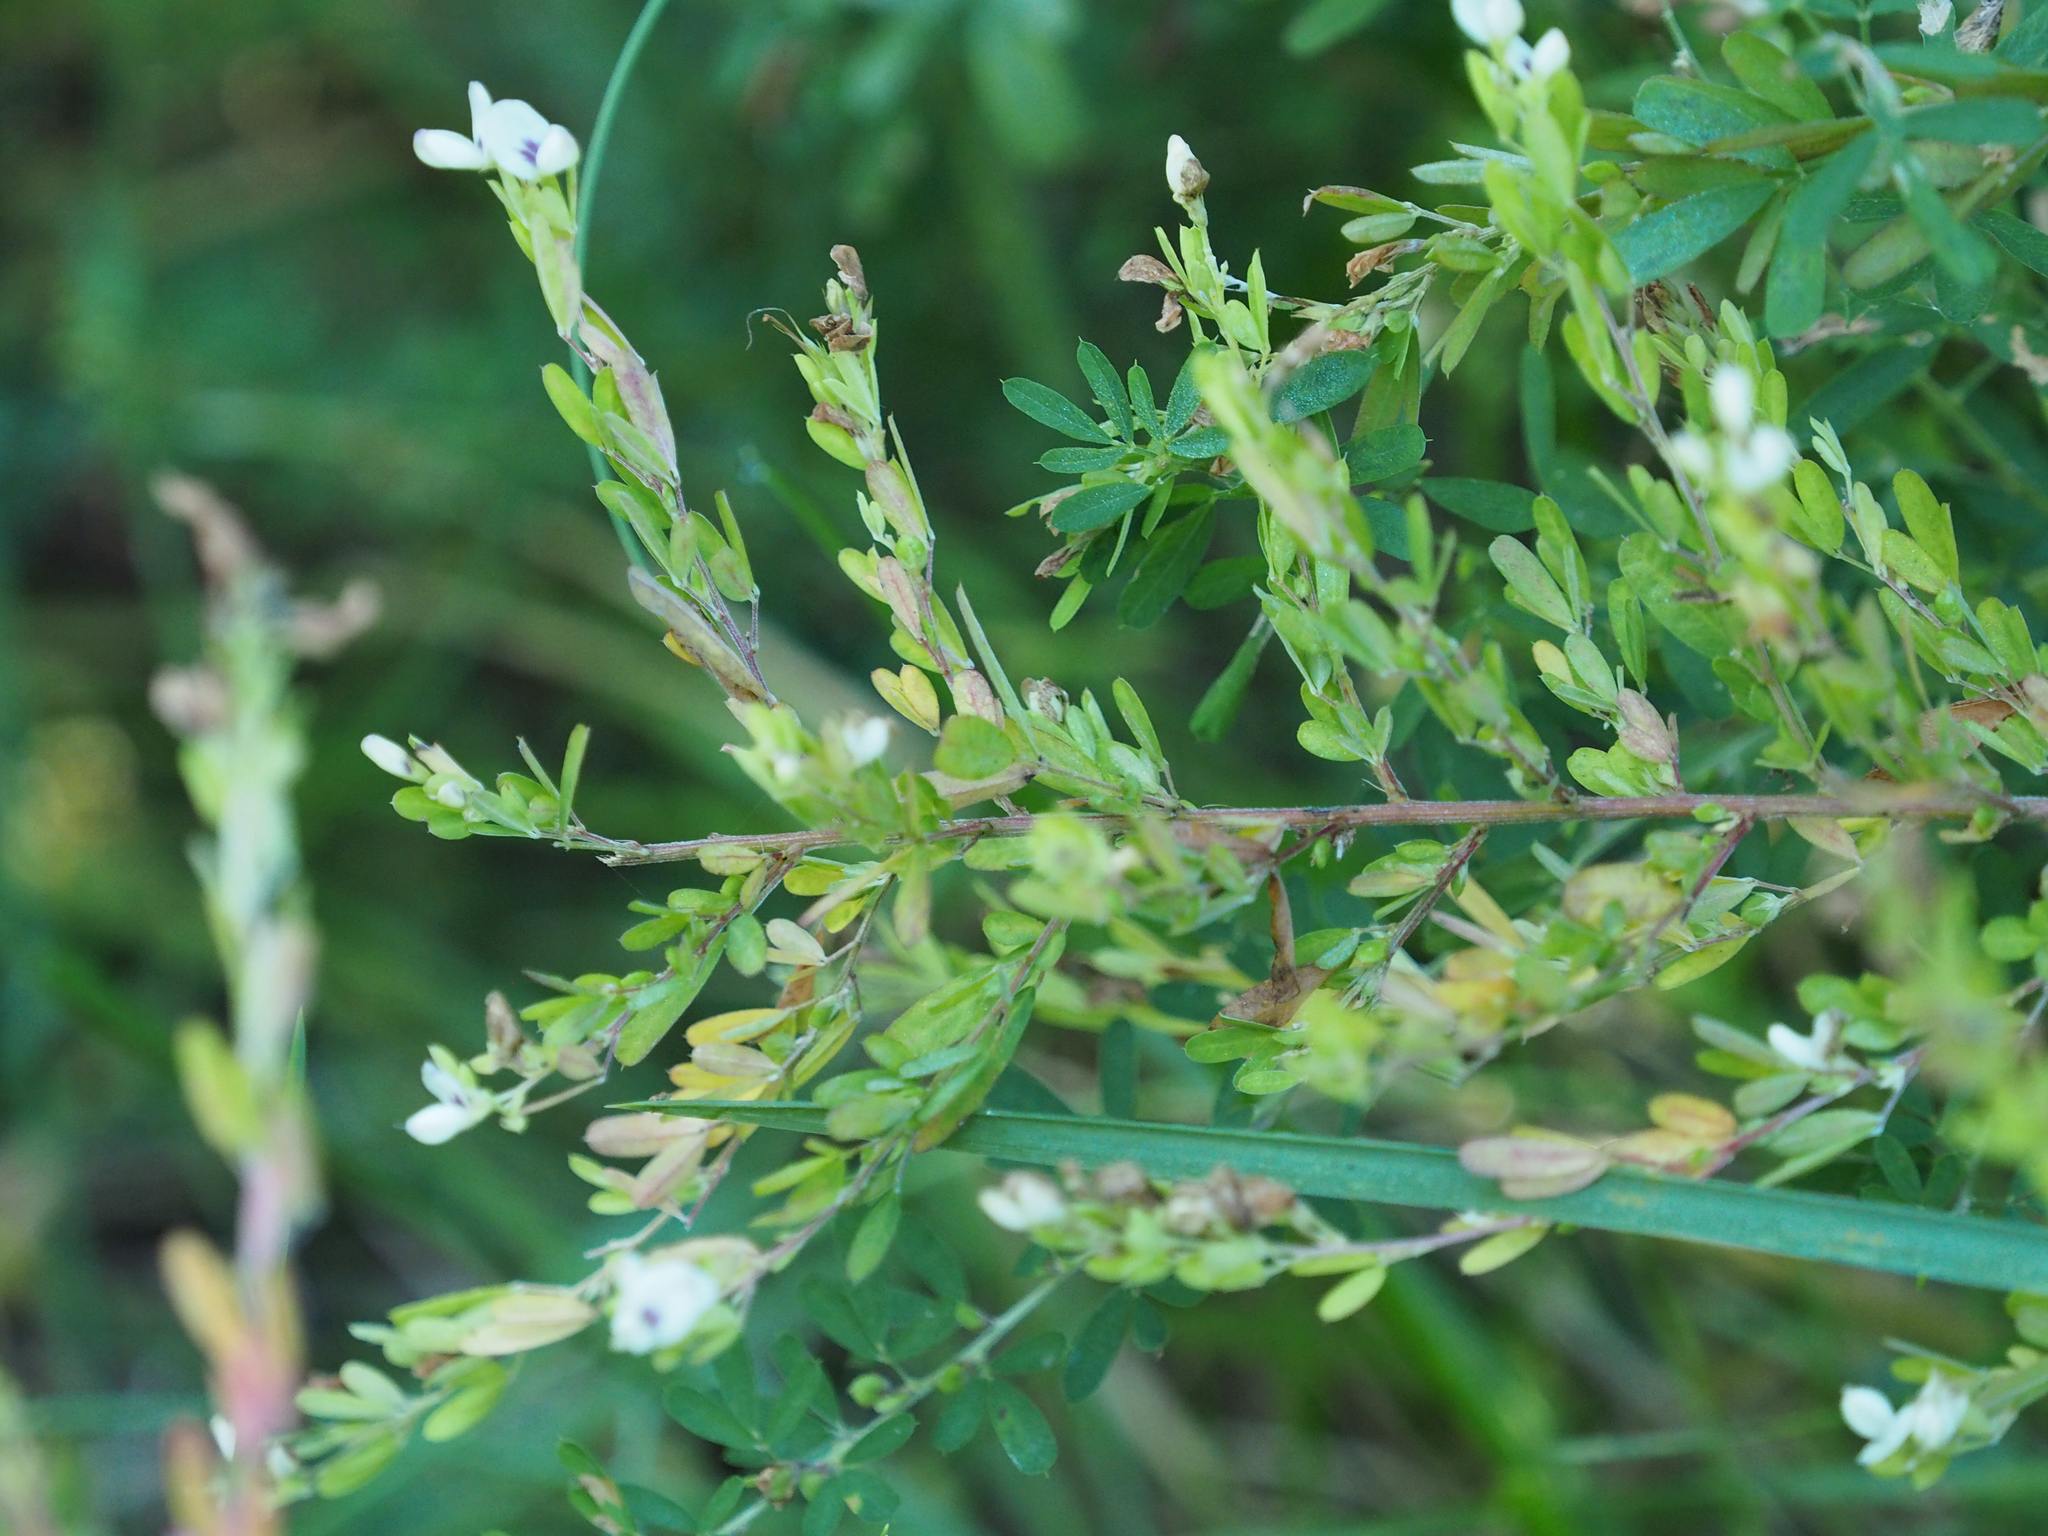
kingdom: Plantae
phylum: Tracheophyta
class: Magnoliopsida
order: Fabales
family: Fabaceae
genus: Lespedeza
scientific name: Lespedeza cuneata
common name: Chinese bush-clover
